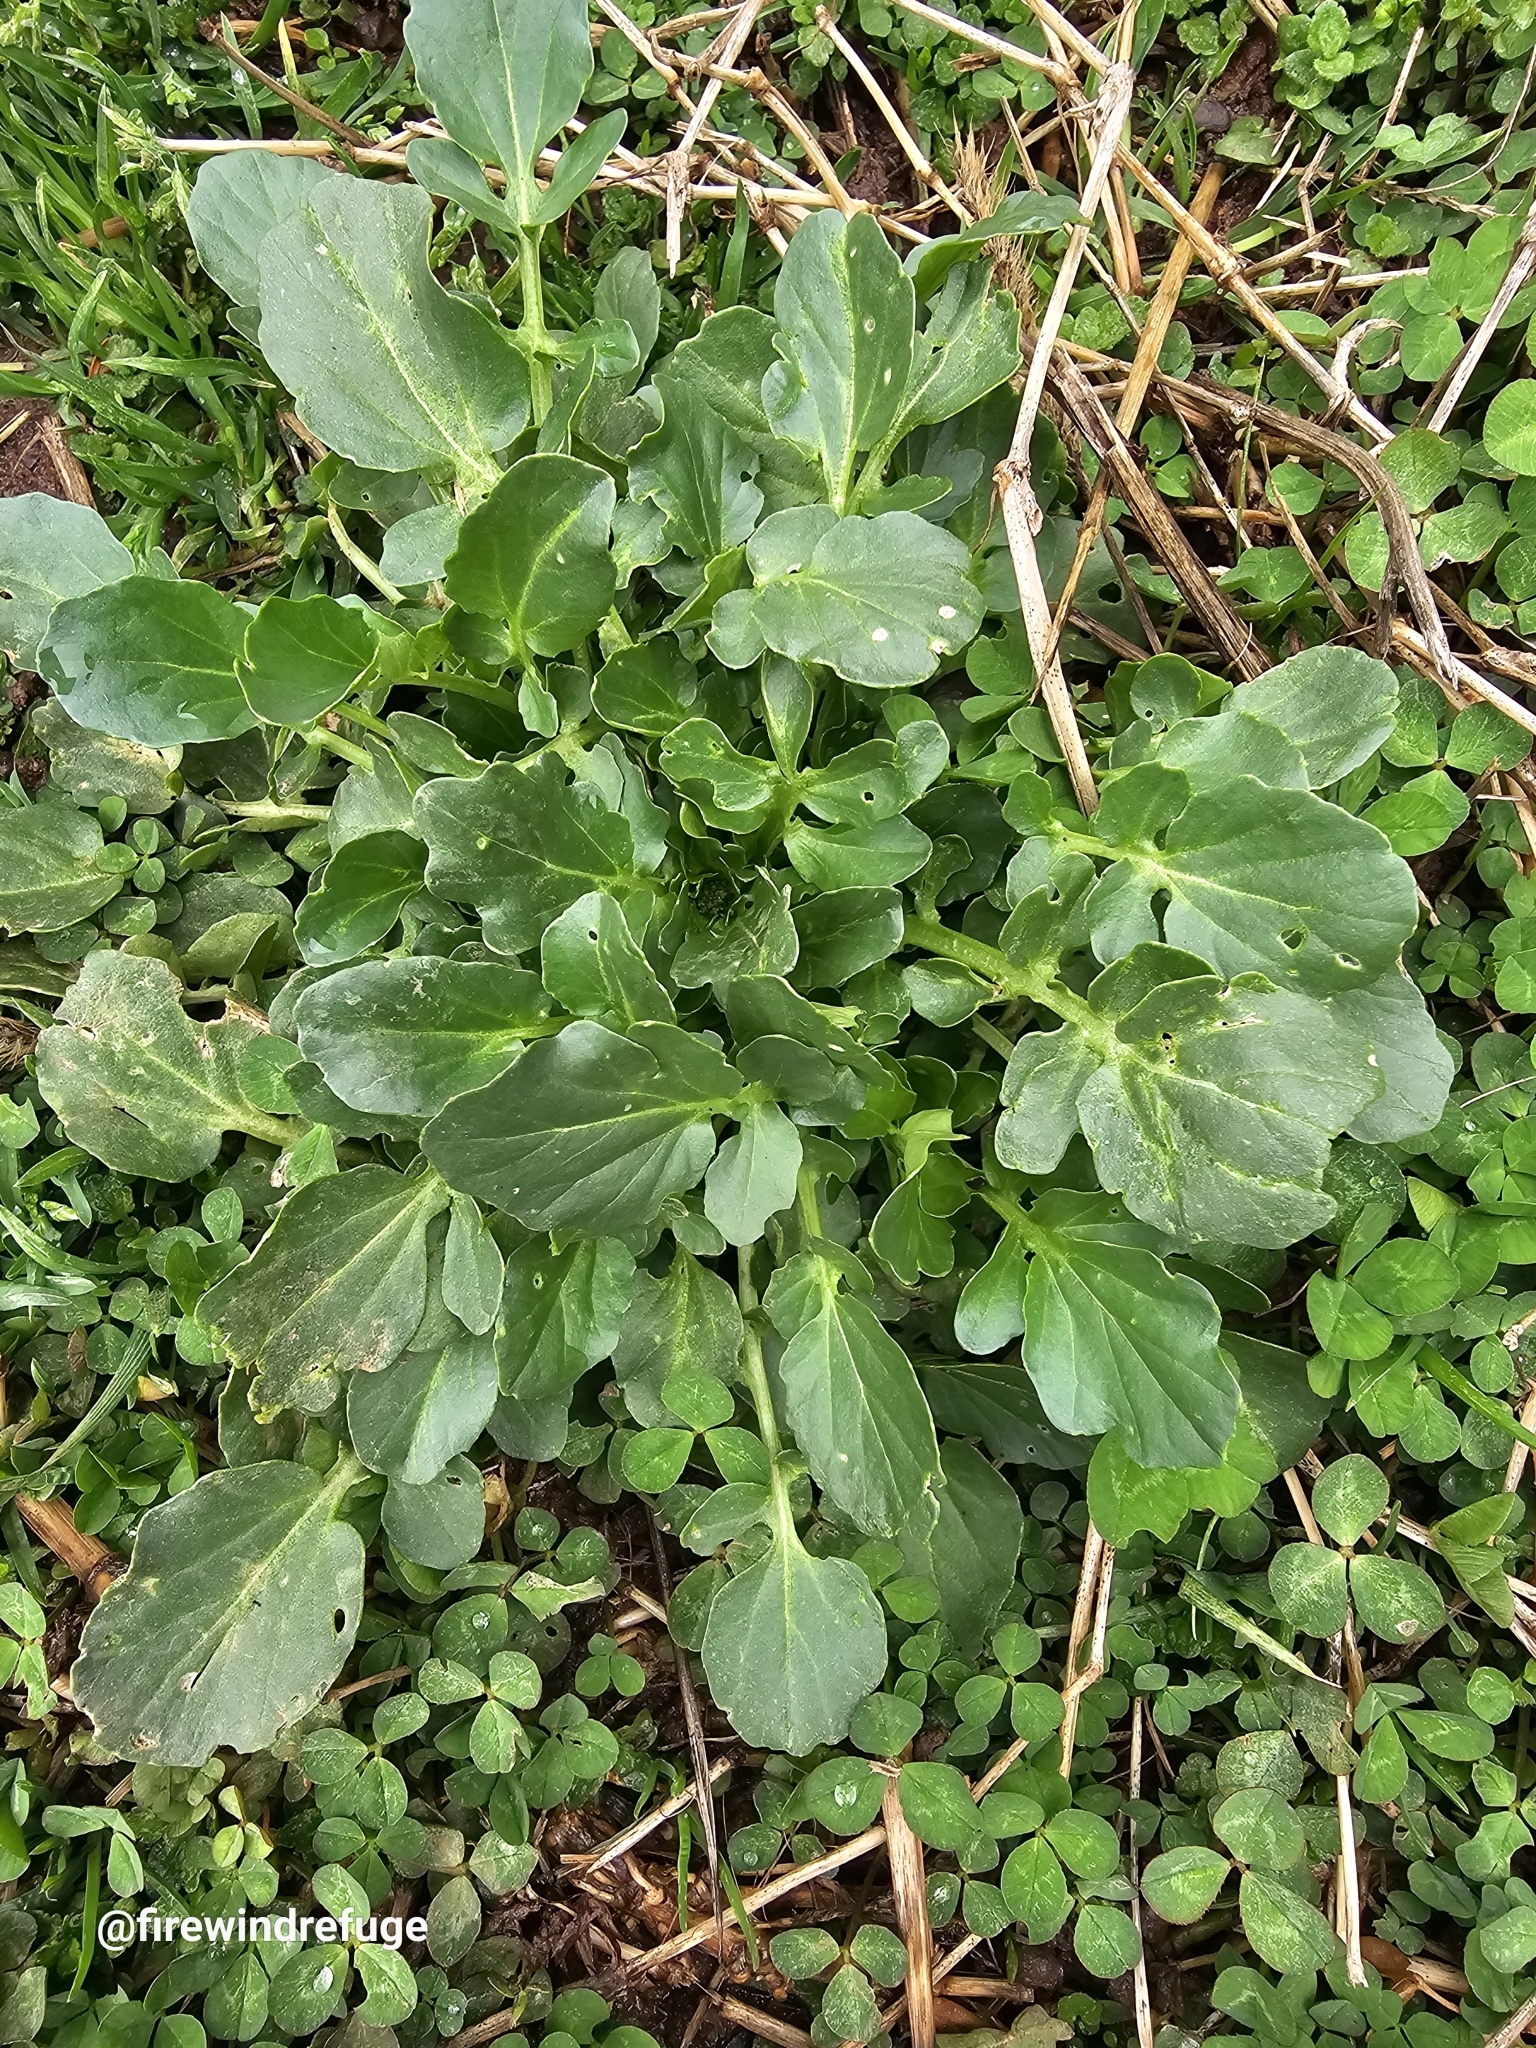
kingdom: Plantae
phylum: Tracheophyta
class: Magnoliopsida
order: Brassicales
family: Brassicaceae
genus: Barbarea
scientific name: Barbarea vulgaris
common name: Cressy-greens
